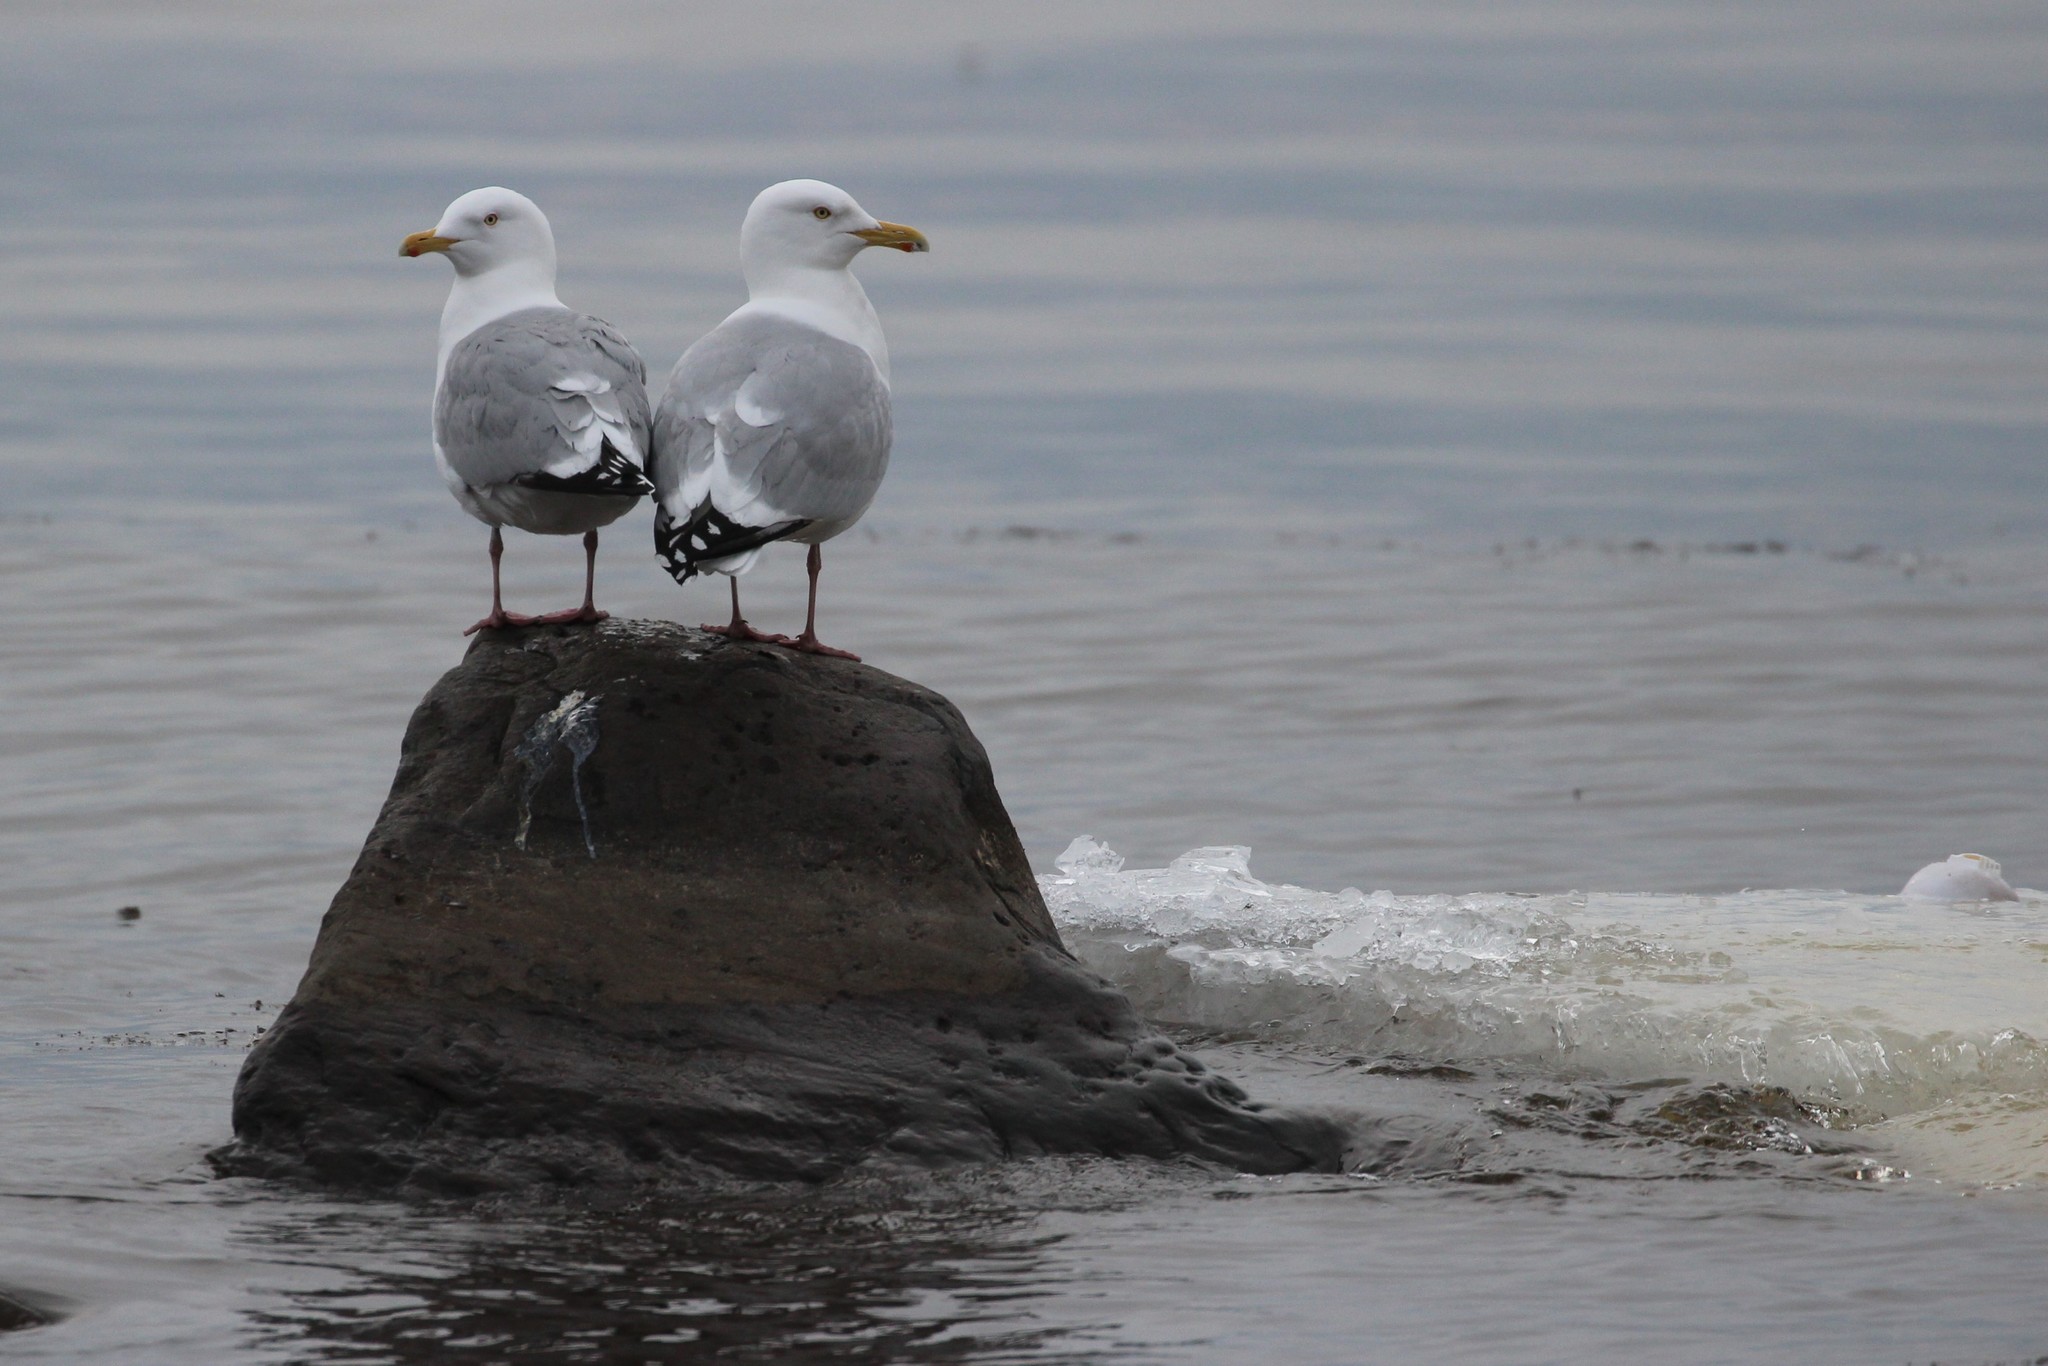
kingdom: Animalia
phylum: Chordata
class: Aves
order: Charadriiformes
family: Laridae
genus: Larus
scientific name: Larus argentatus
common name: Herring gull
